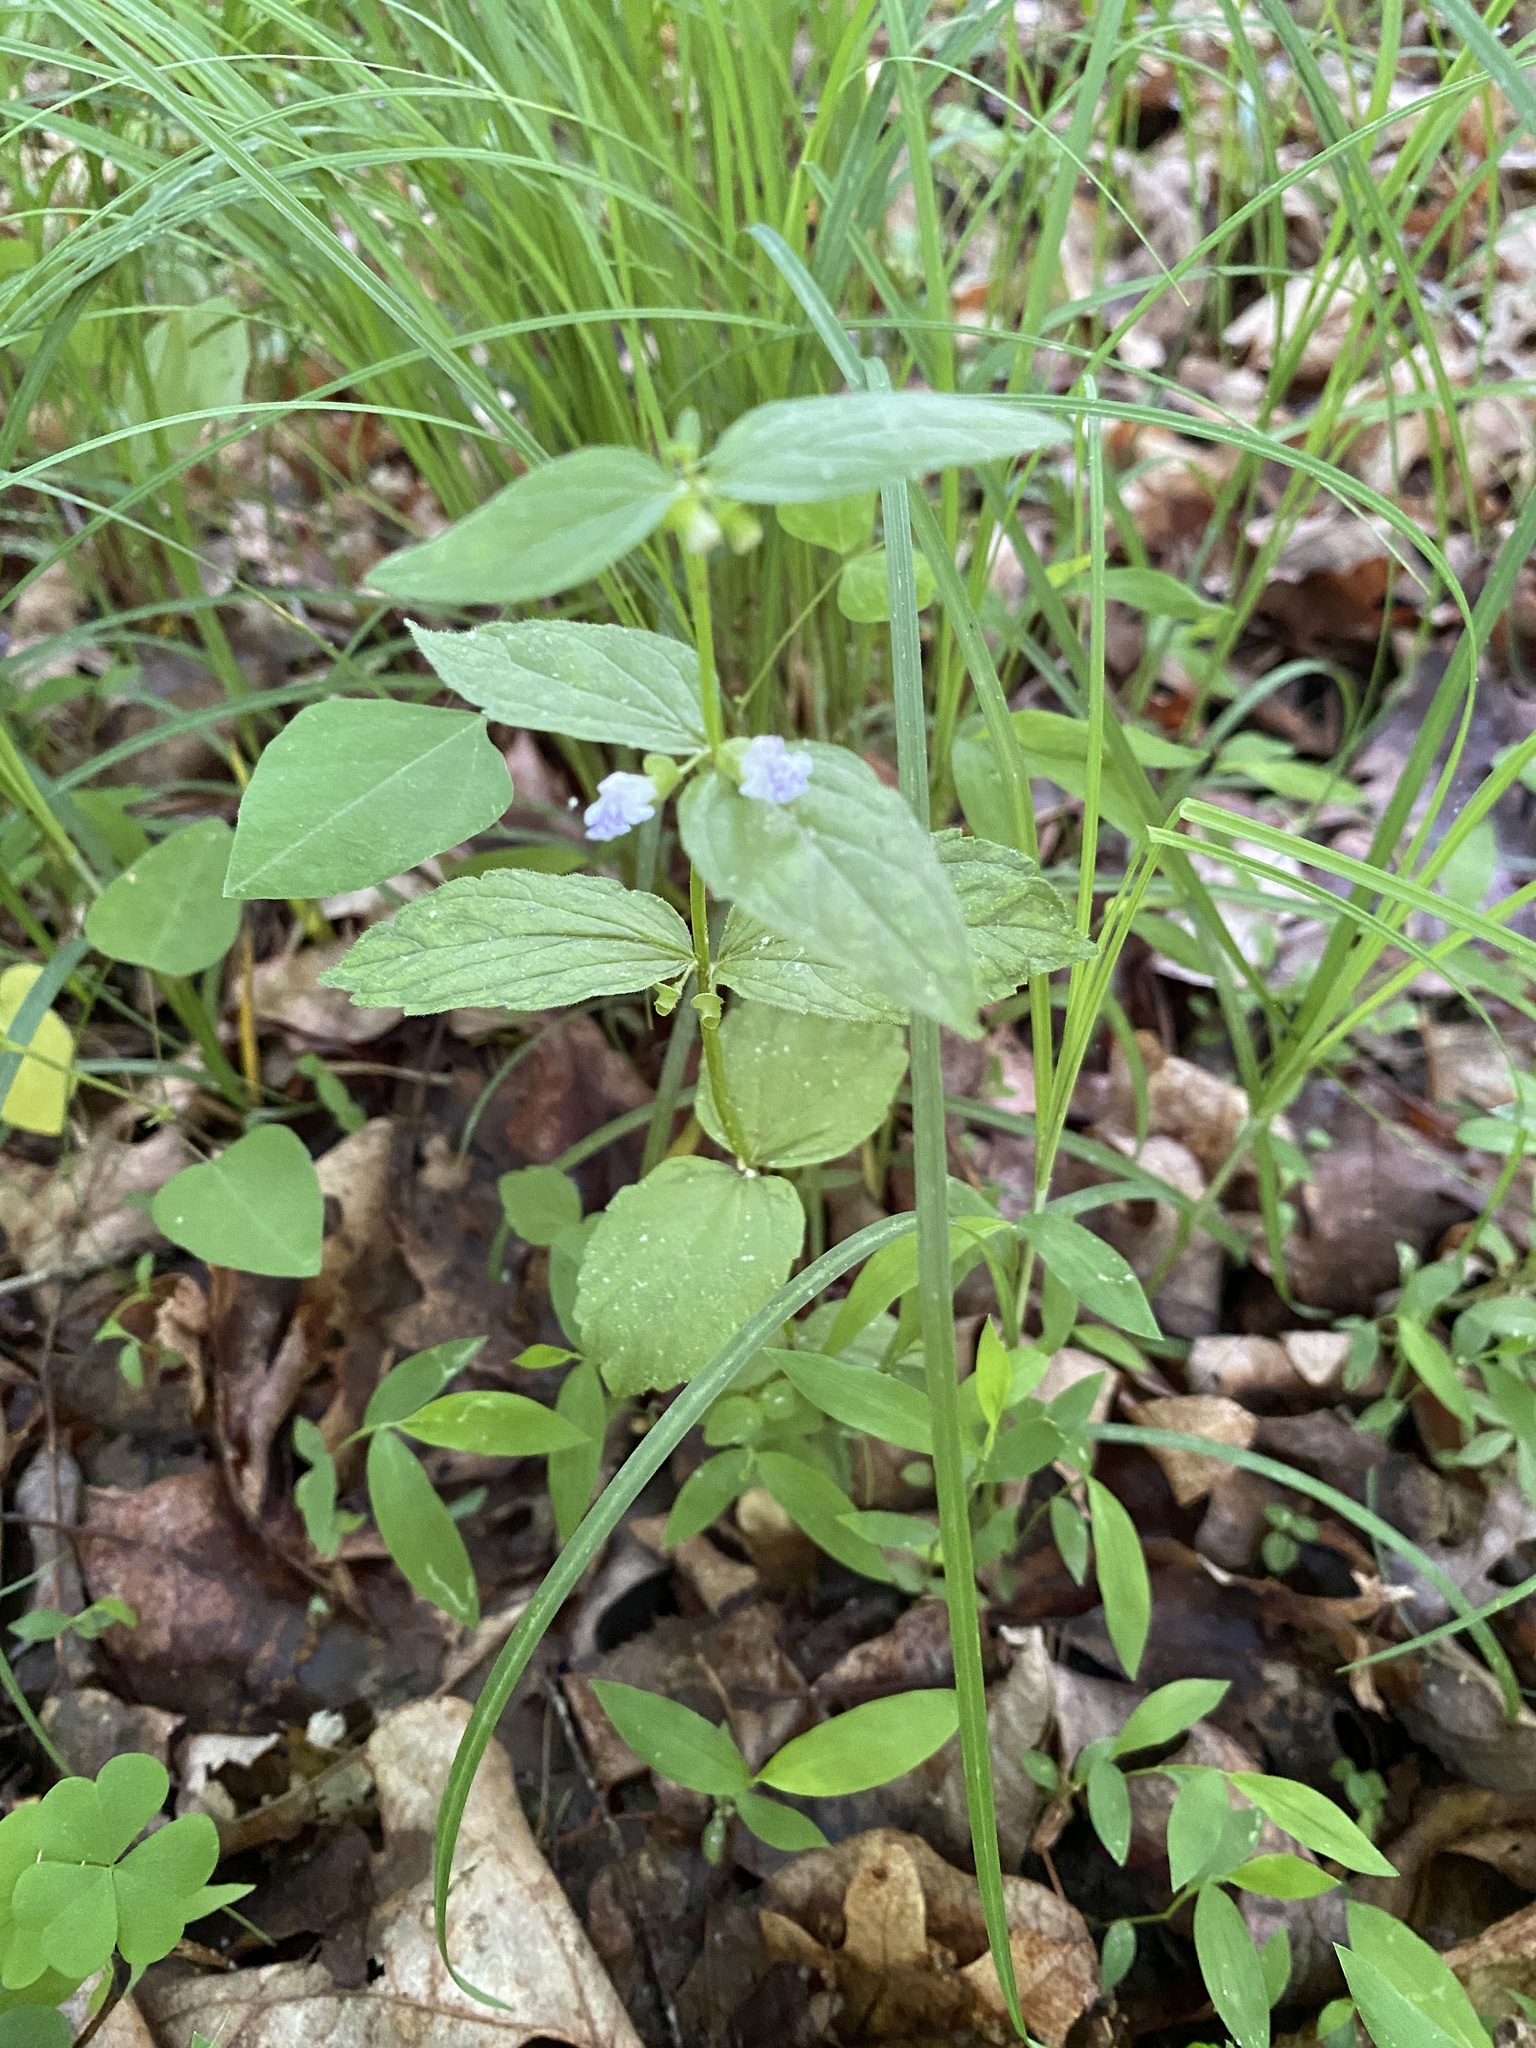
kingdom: Plantae
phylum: Tracheophyta
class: Magnoliopsida
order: Lamiales
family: Lamiaceae
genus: Scutellaria
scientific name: Scutellaria nervosa
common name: Bottomland skullcap
